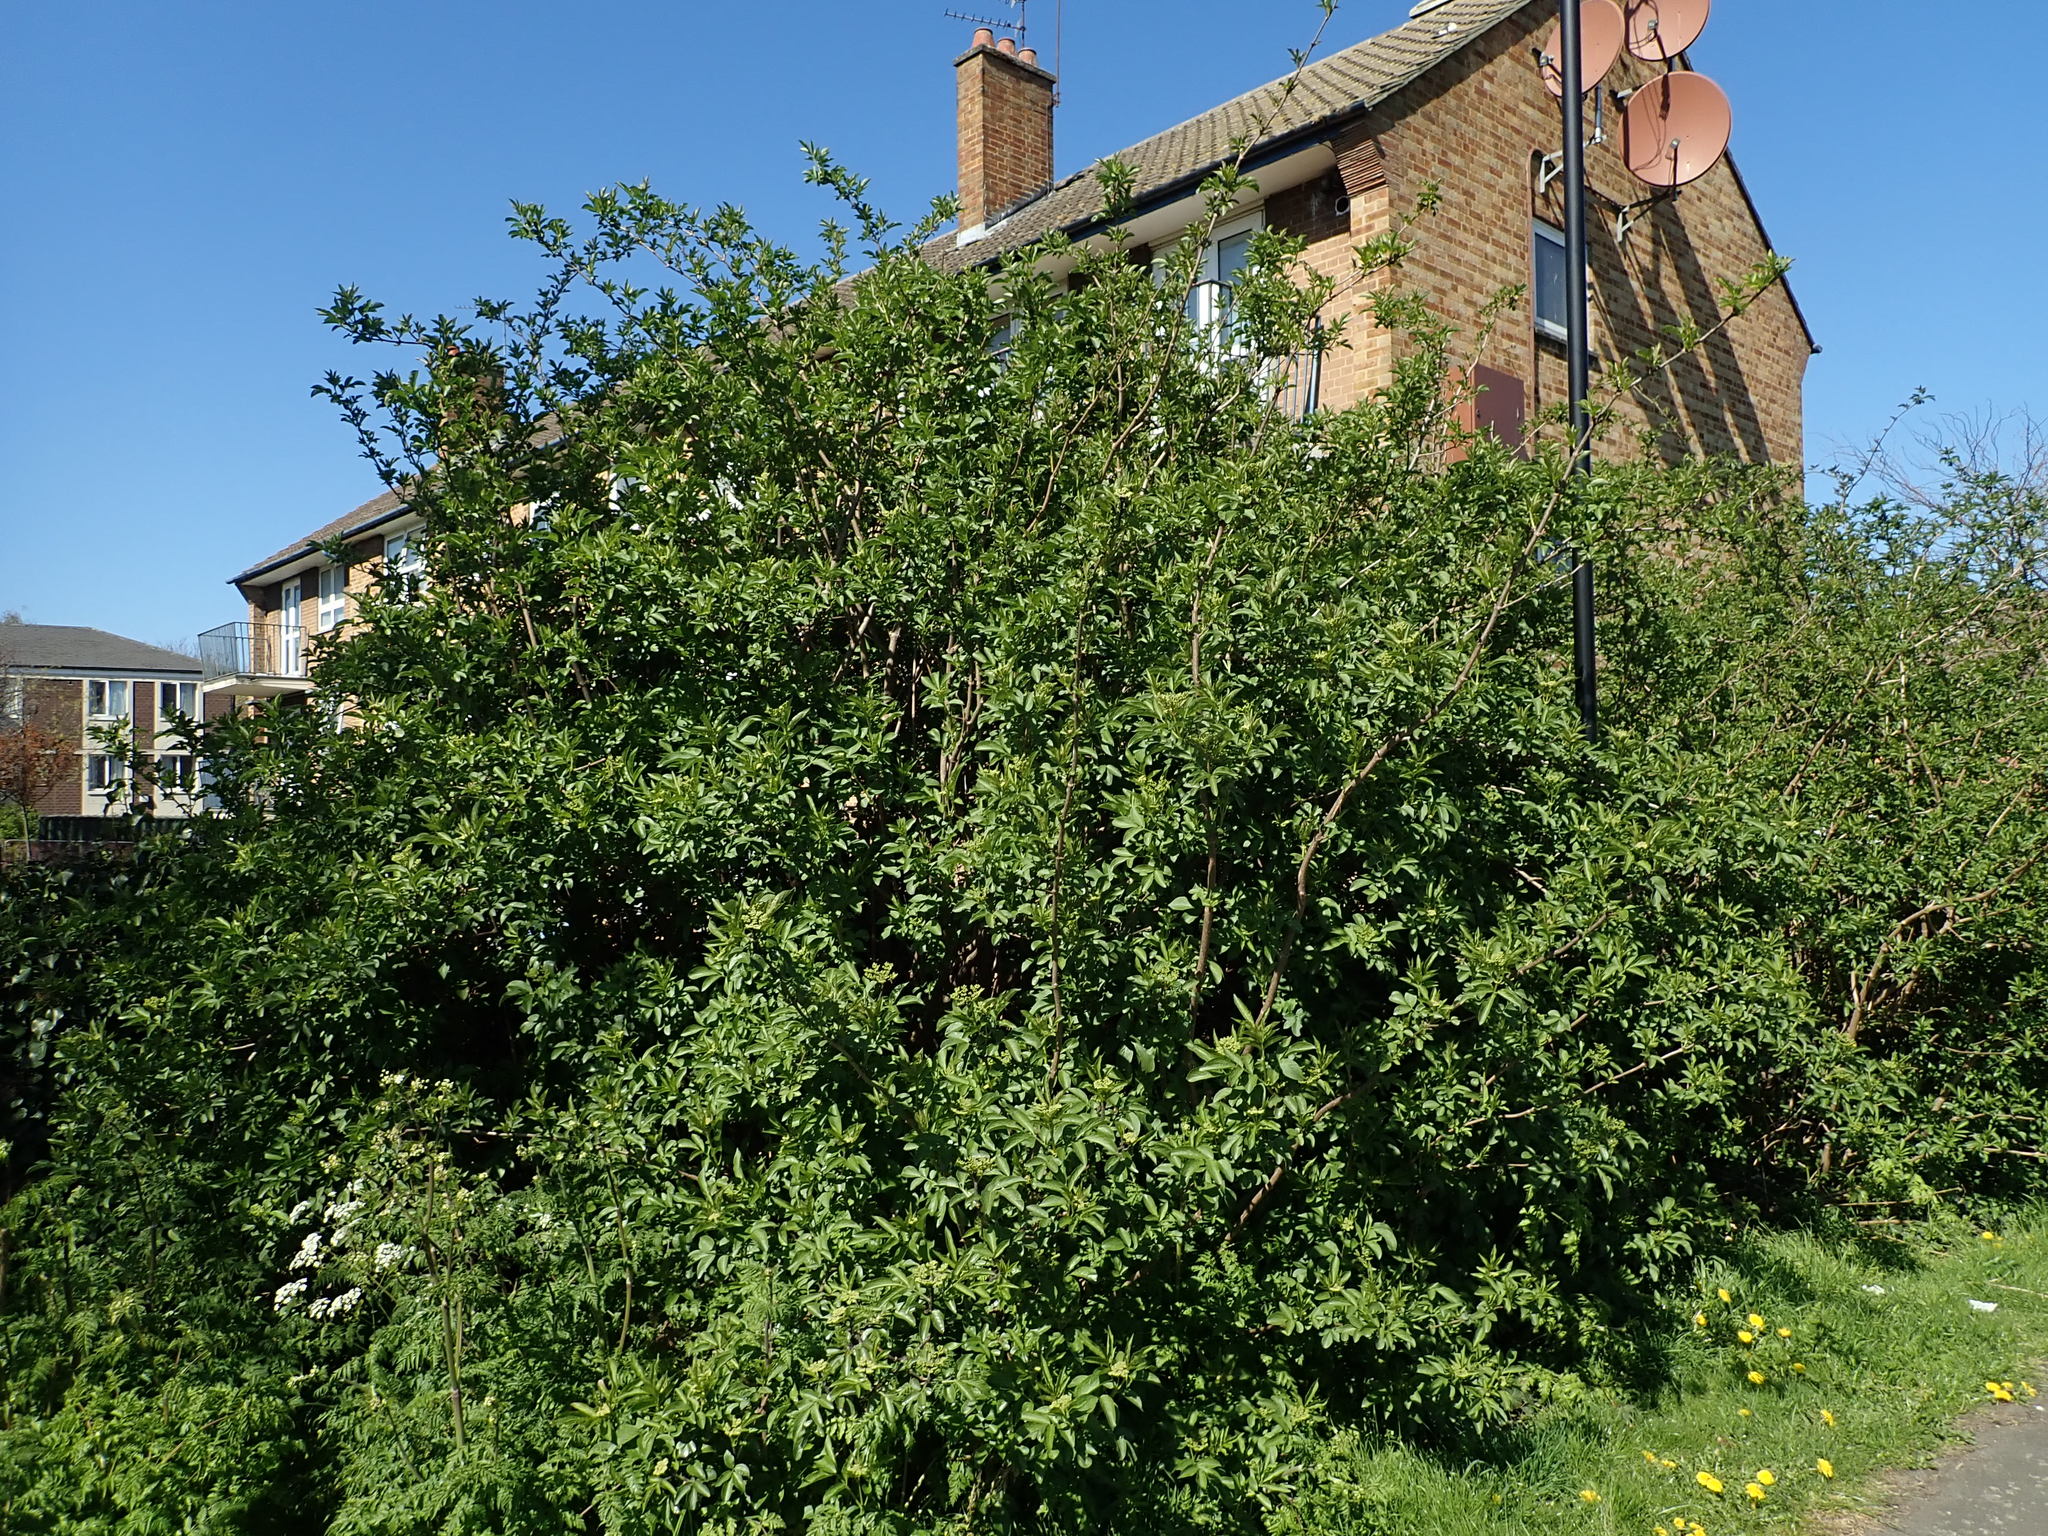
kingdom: Plantae
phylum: Tracheophyta
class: Magnoliopsida
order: Dipsacales
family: Viburnaceae
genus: Sambucus
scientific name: Sambucus nigra
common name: Elder
